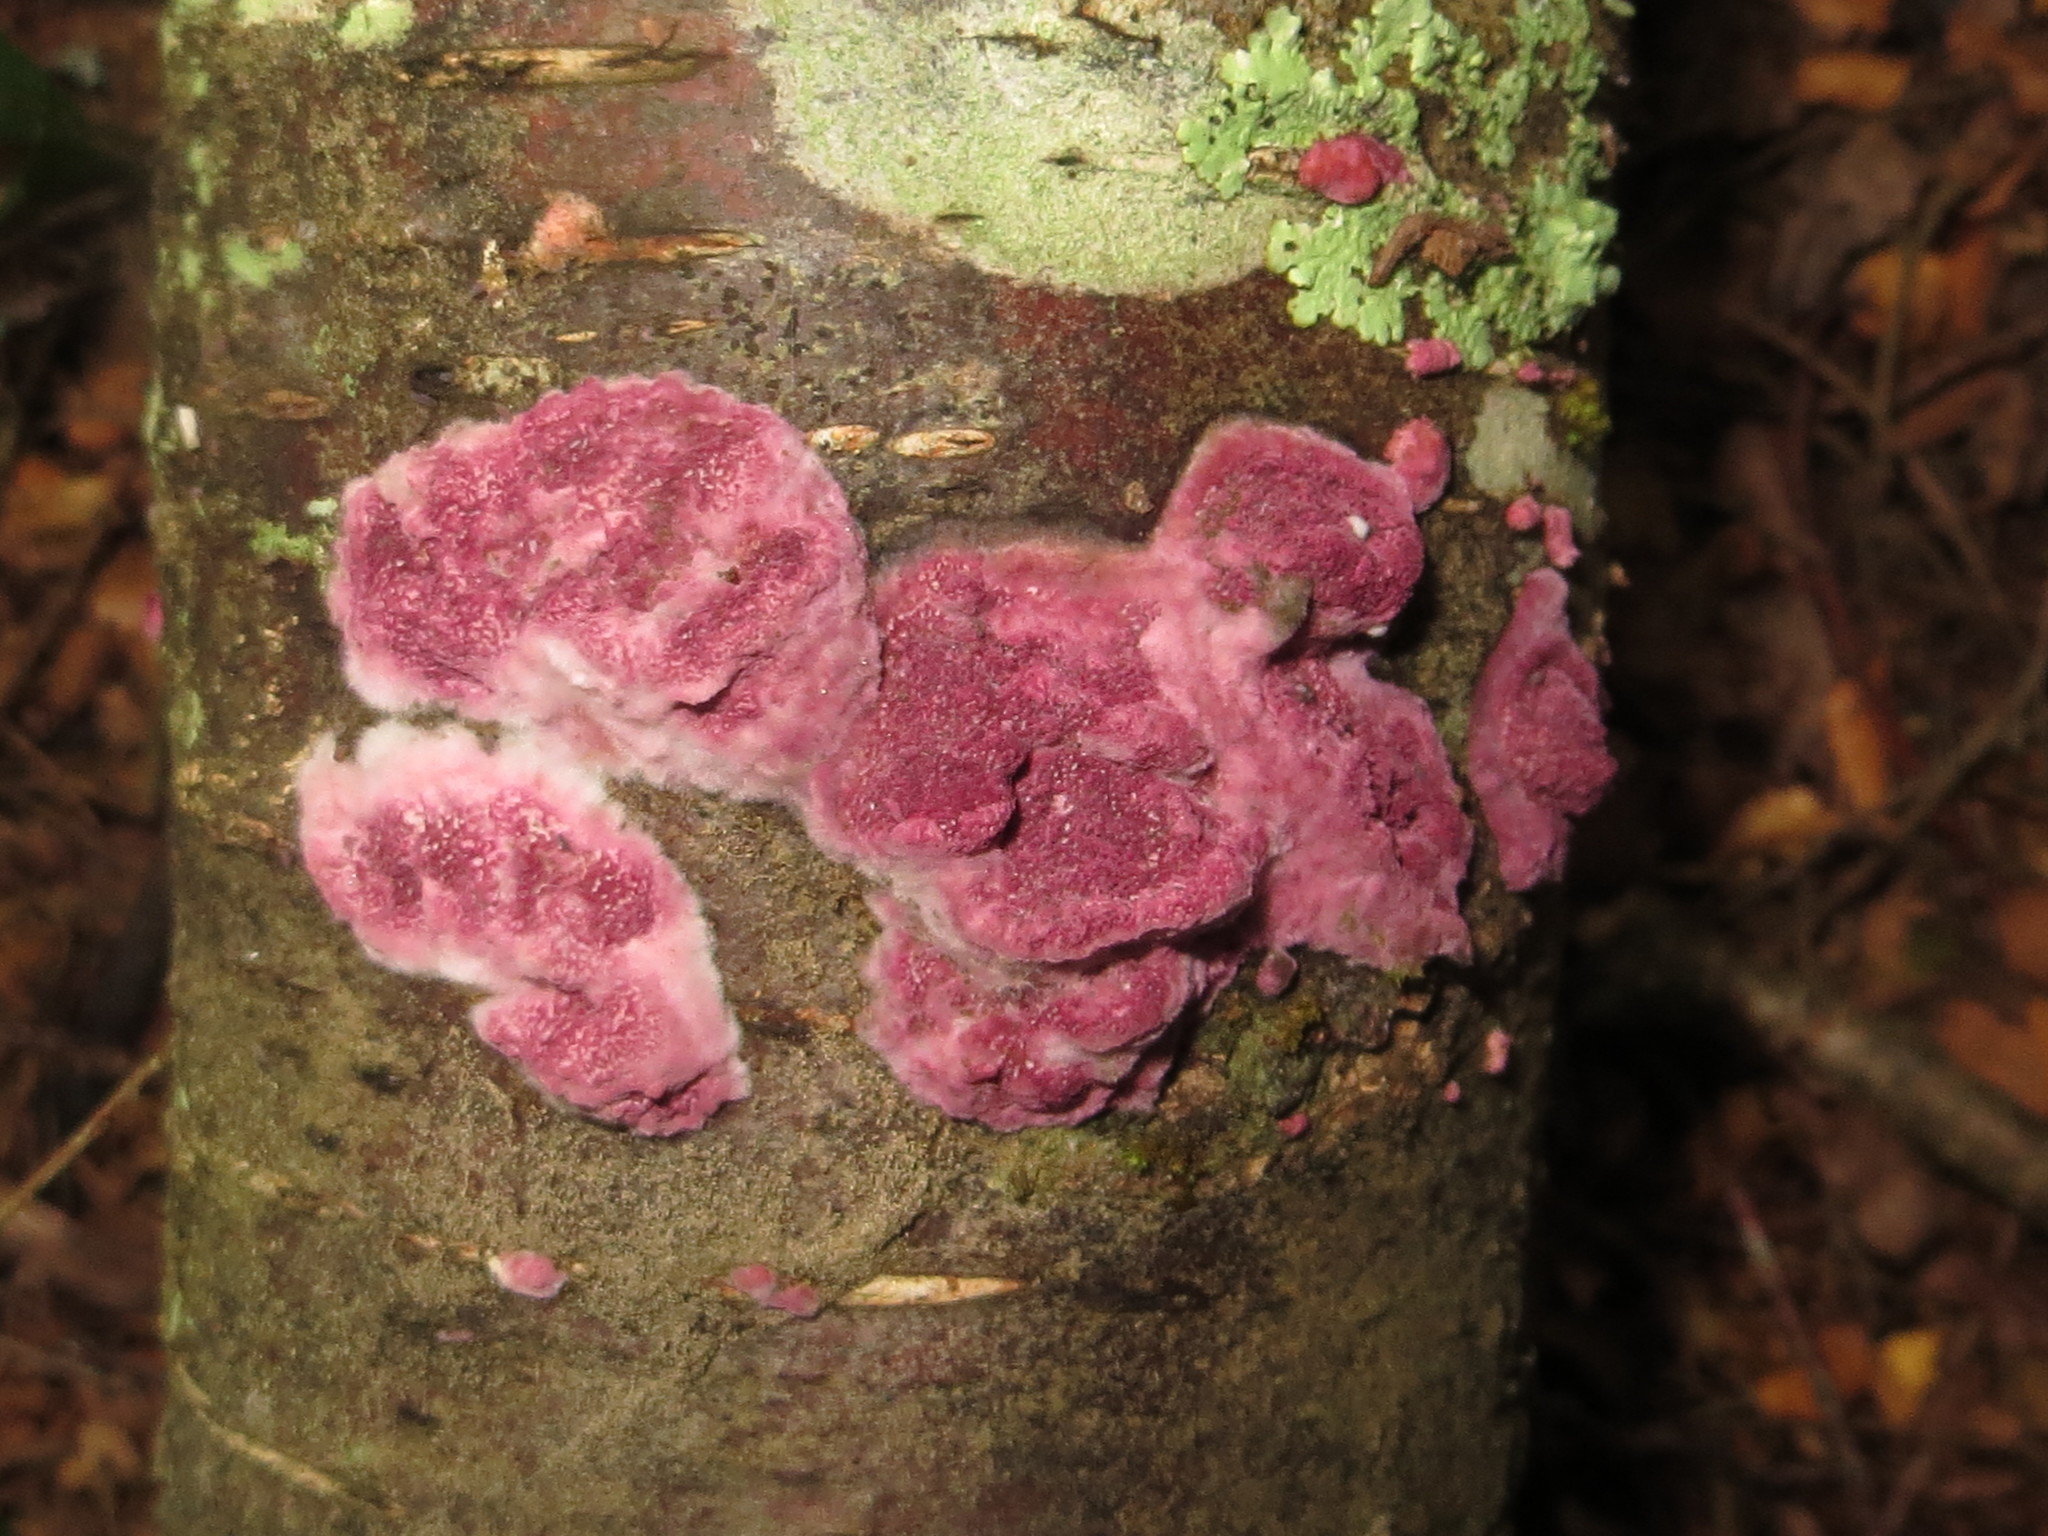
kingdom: Fungi
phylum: Basidiomycota
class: Agaricomycetes
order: Polyporales
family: Irpicaceae
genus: Byssomerulius
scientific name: Byssomerulius psittacinus
